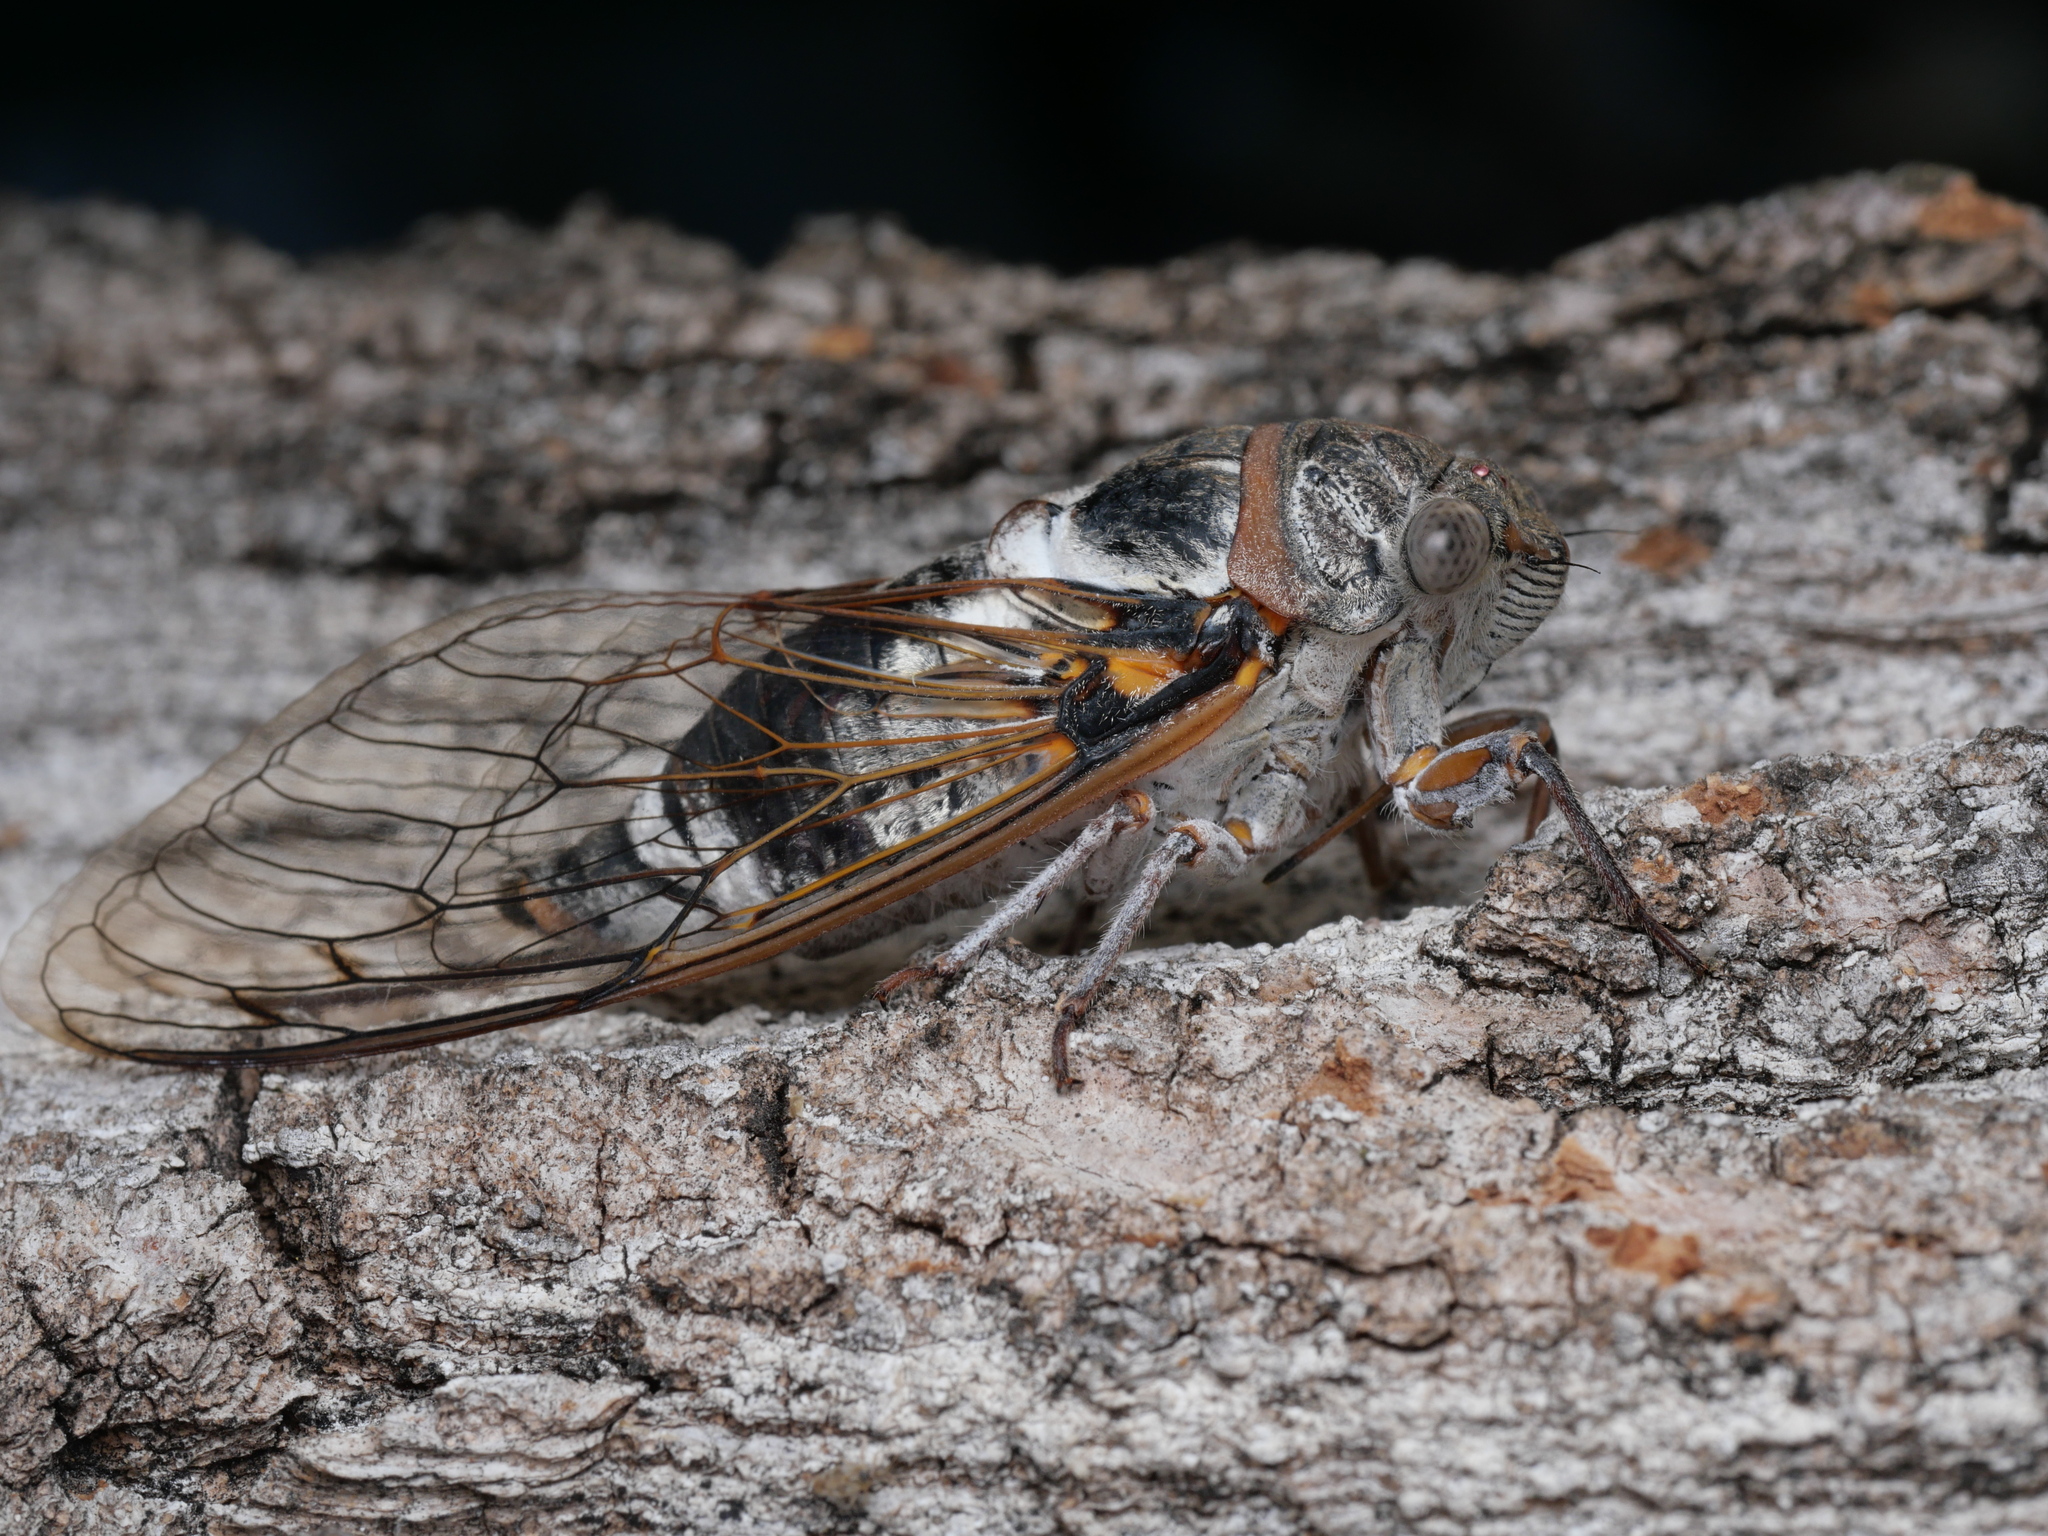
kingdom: Animalia
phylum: Arthropoda
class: Insecta
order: Hemiptera
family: Cicadidae
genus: Lyristes
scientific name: Lyristes plebejus
